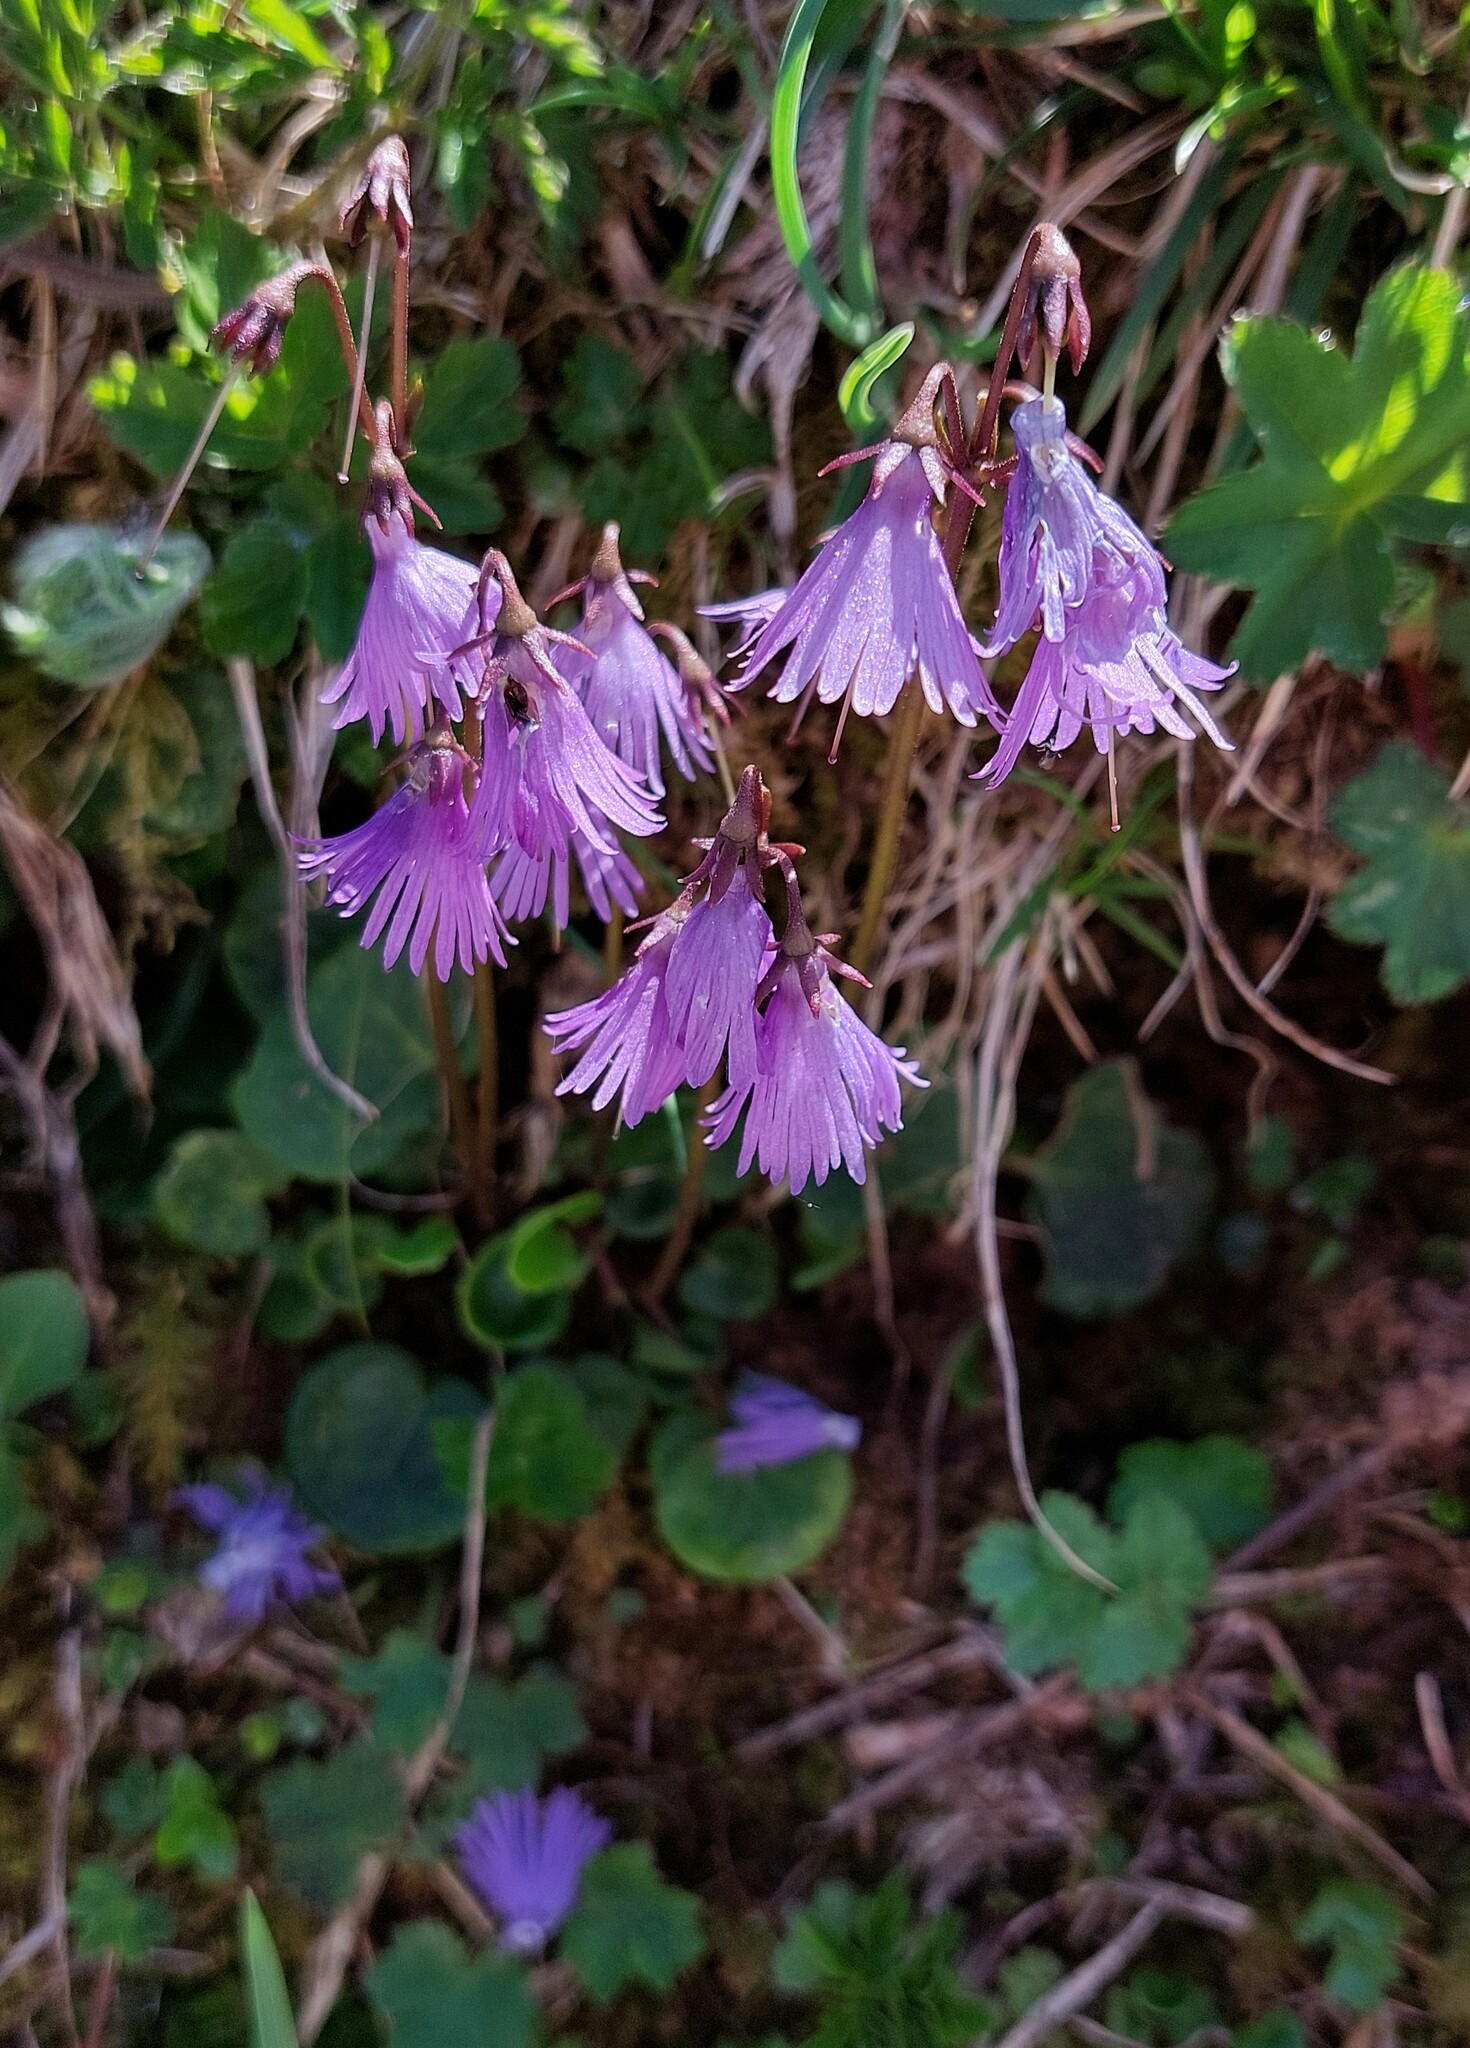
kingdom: Plantae
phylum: Tracheophyta
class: Magnoliopsida
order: Ericales
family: Primulaceae
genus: Soldanella
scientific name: Soldanella alpina
